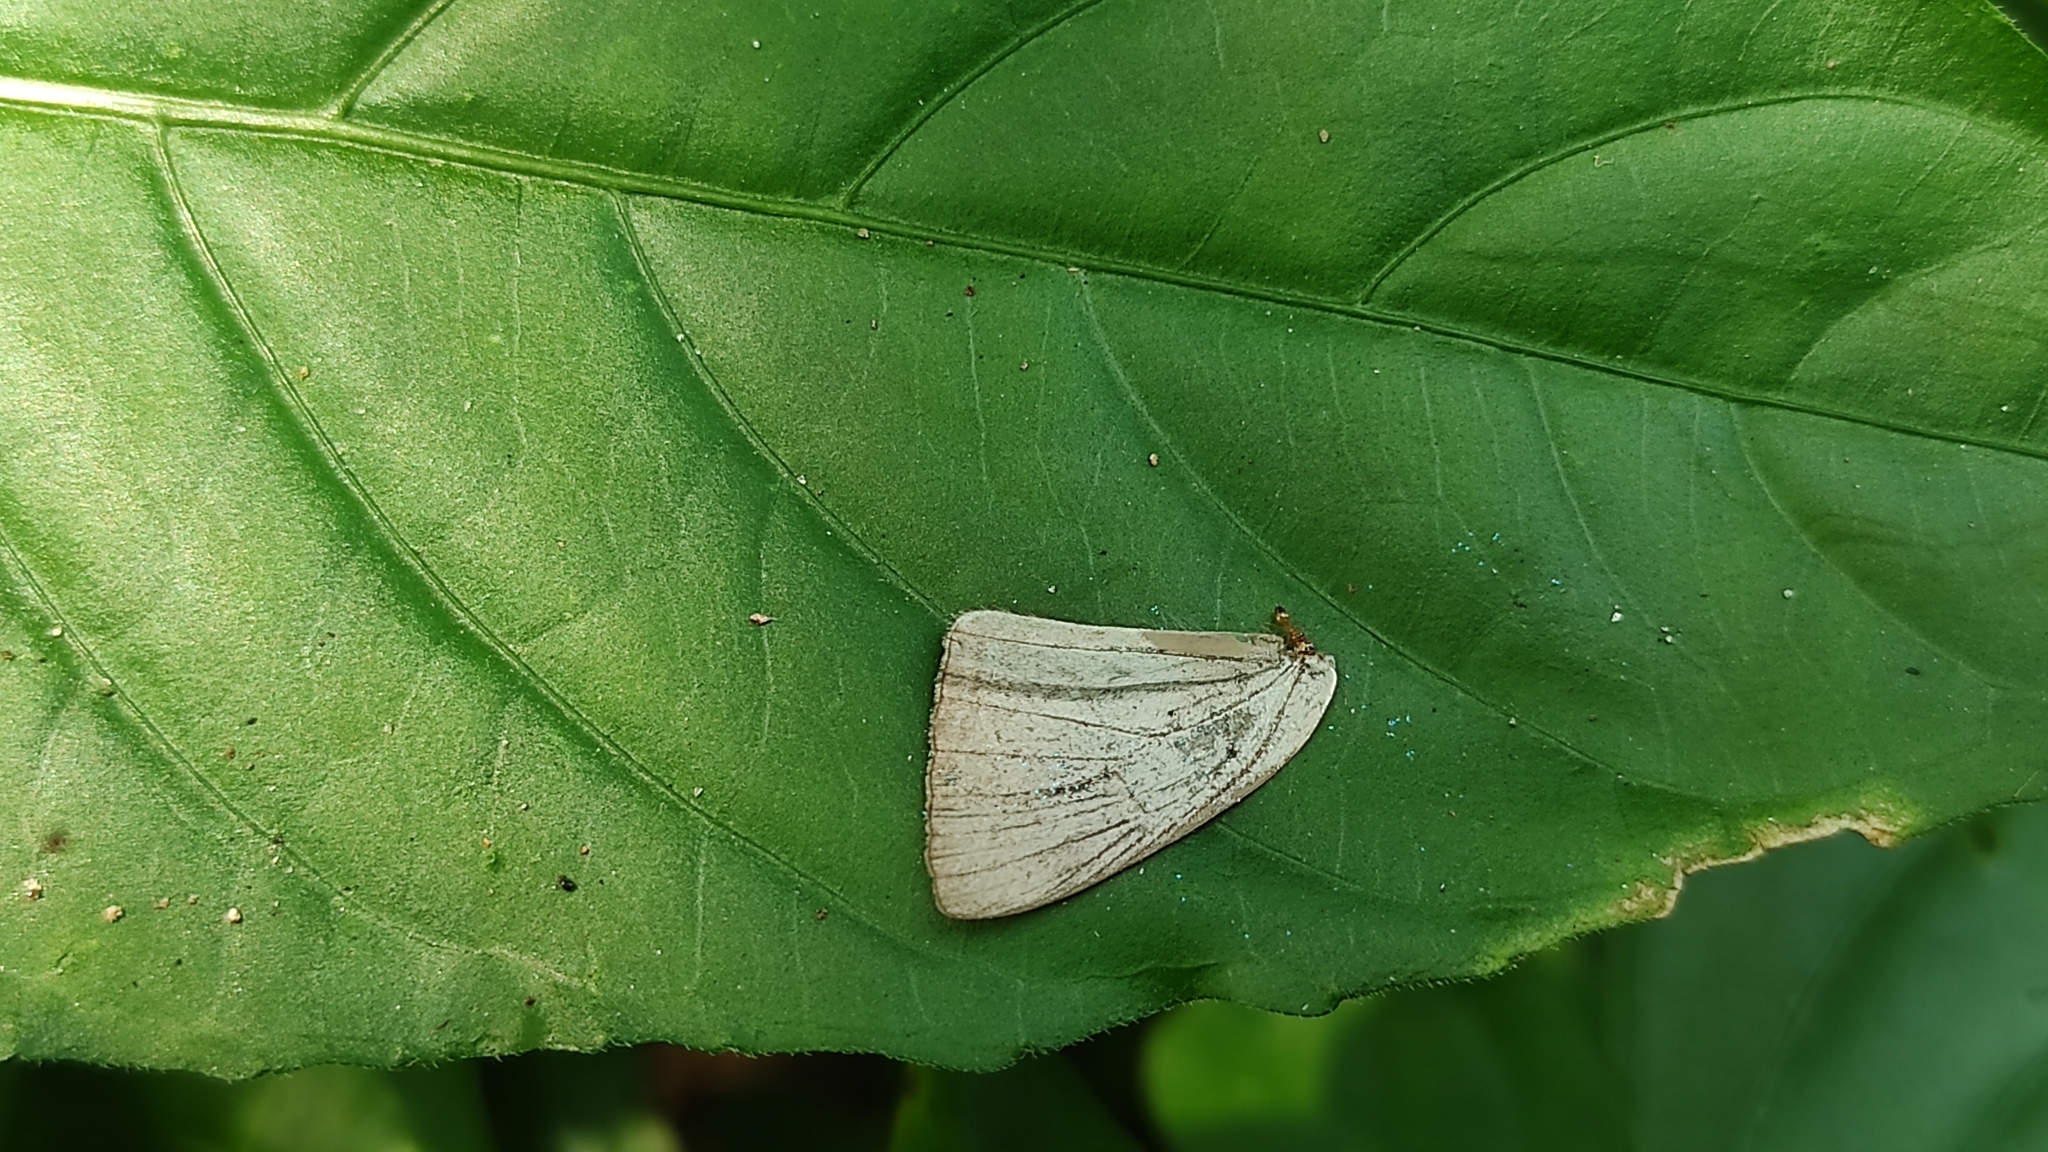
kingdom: Animalia
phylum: Arthropoda
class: Insecta
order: Lepidoptera
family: Lycaenidae
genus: Tajuria
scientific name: Tajuria cippus
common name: Peacock royal
